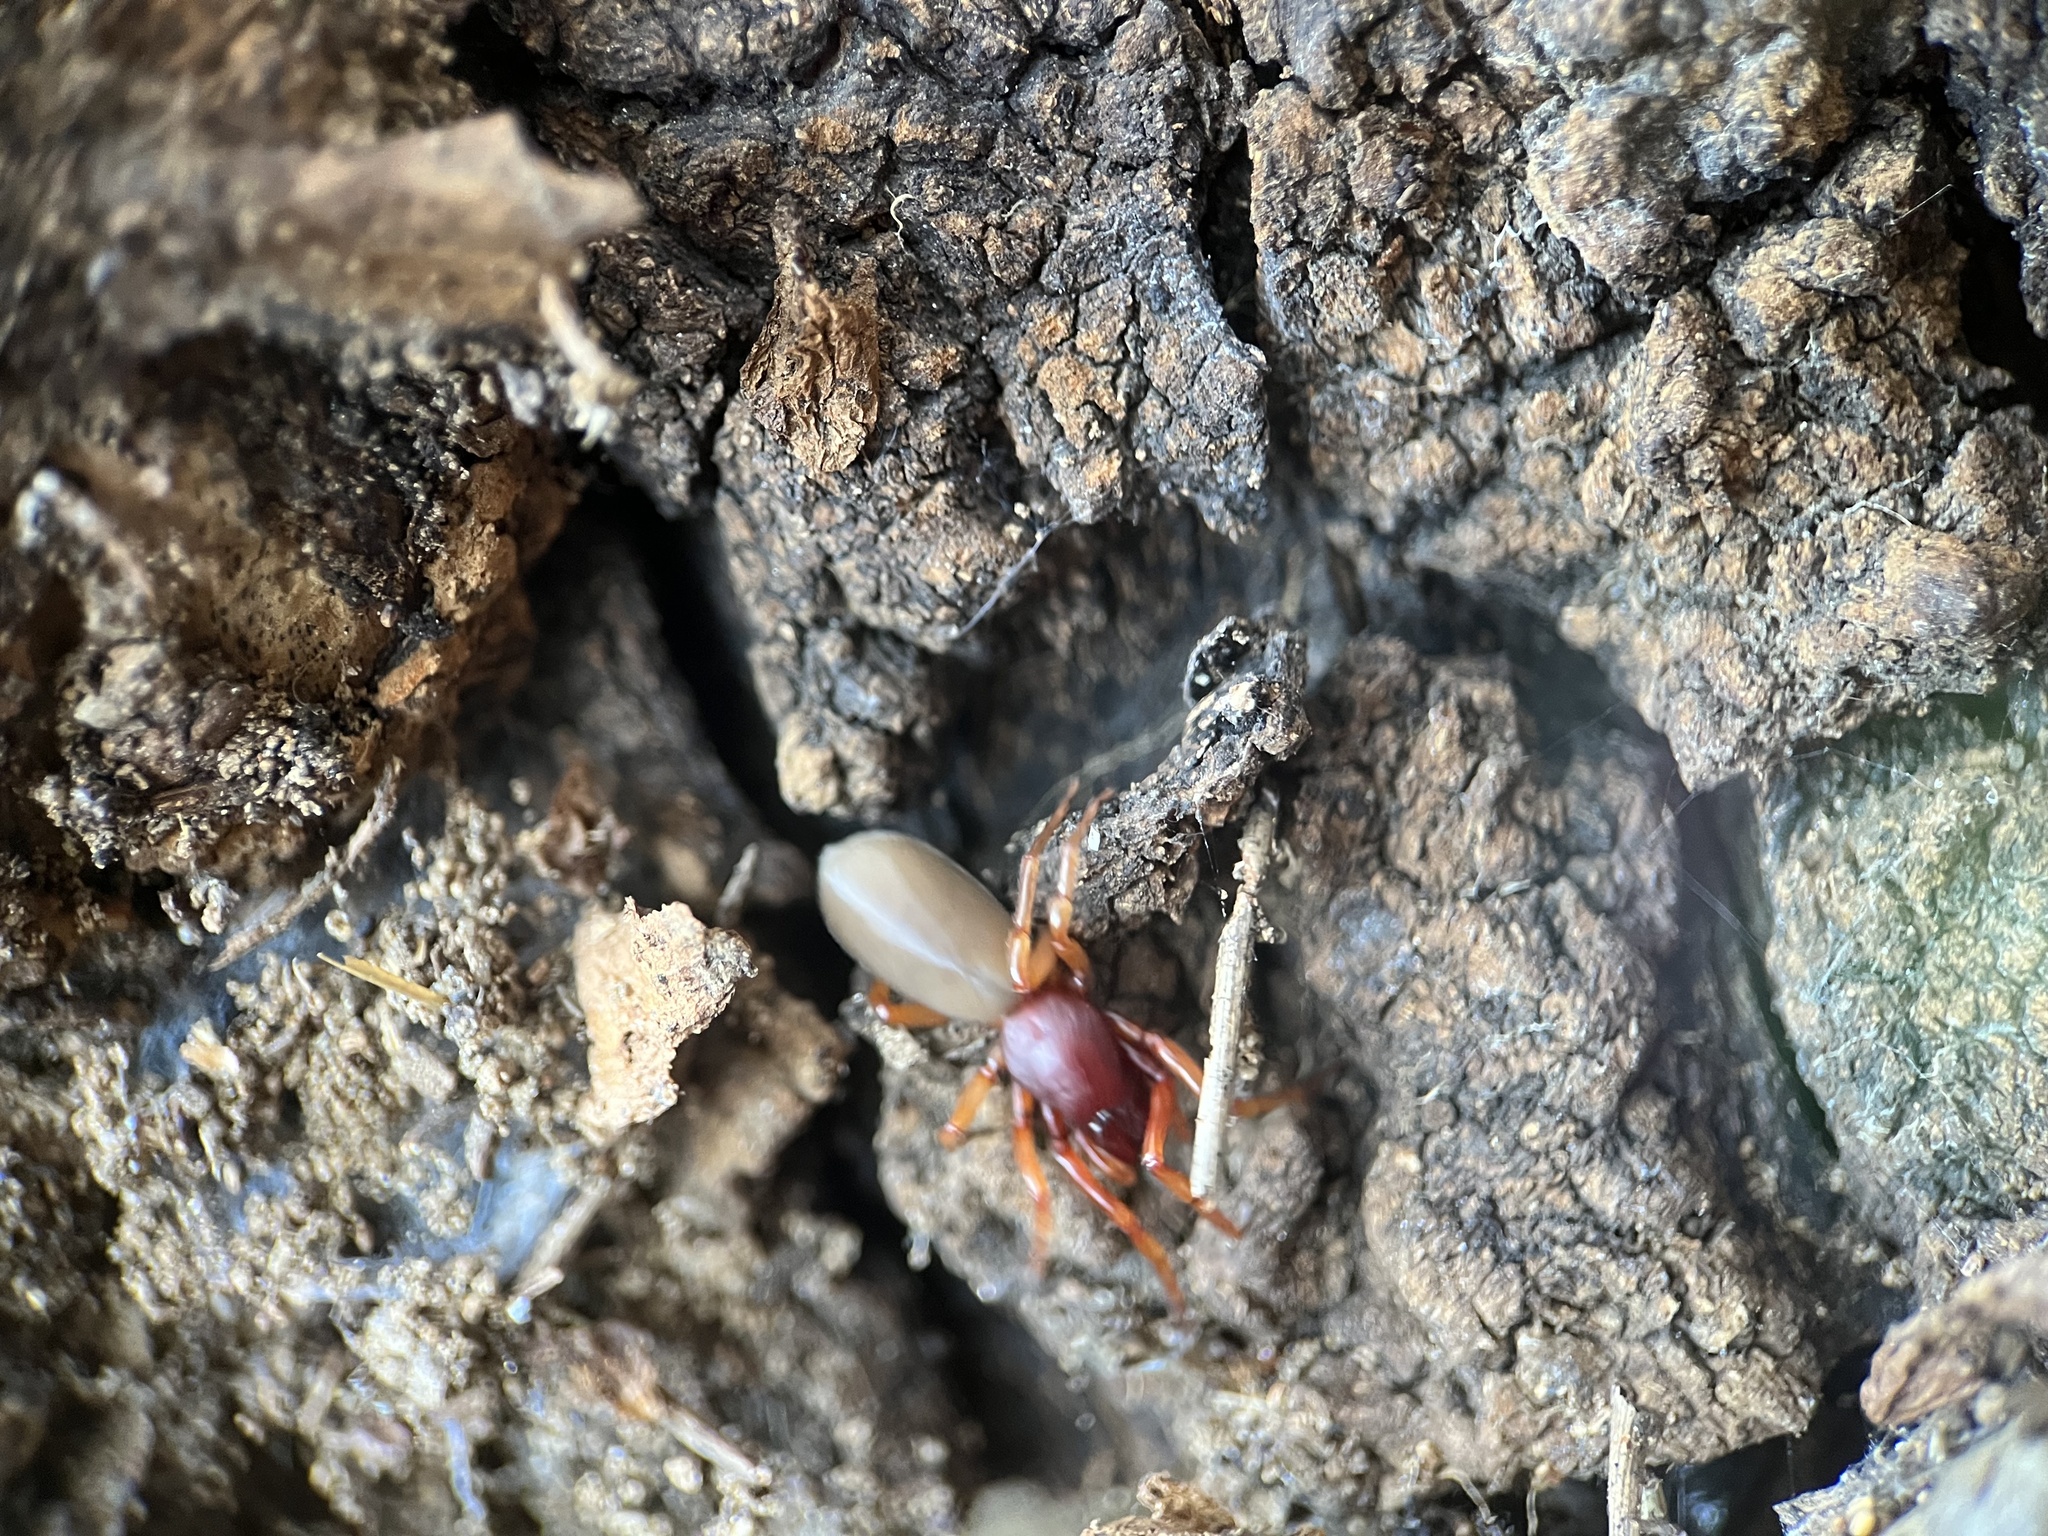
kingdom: Animalia
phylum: Arthropoda
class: Arachnida
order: Araneae
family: Dysderidae
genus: Dysdera
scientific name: Dysdera crocata
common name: Woodlouse spider
